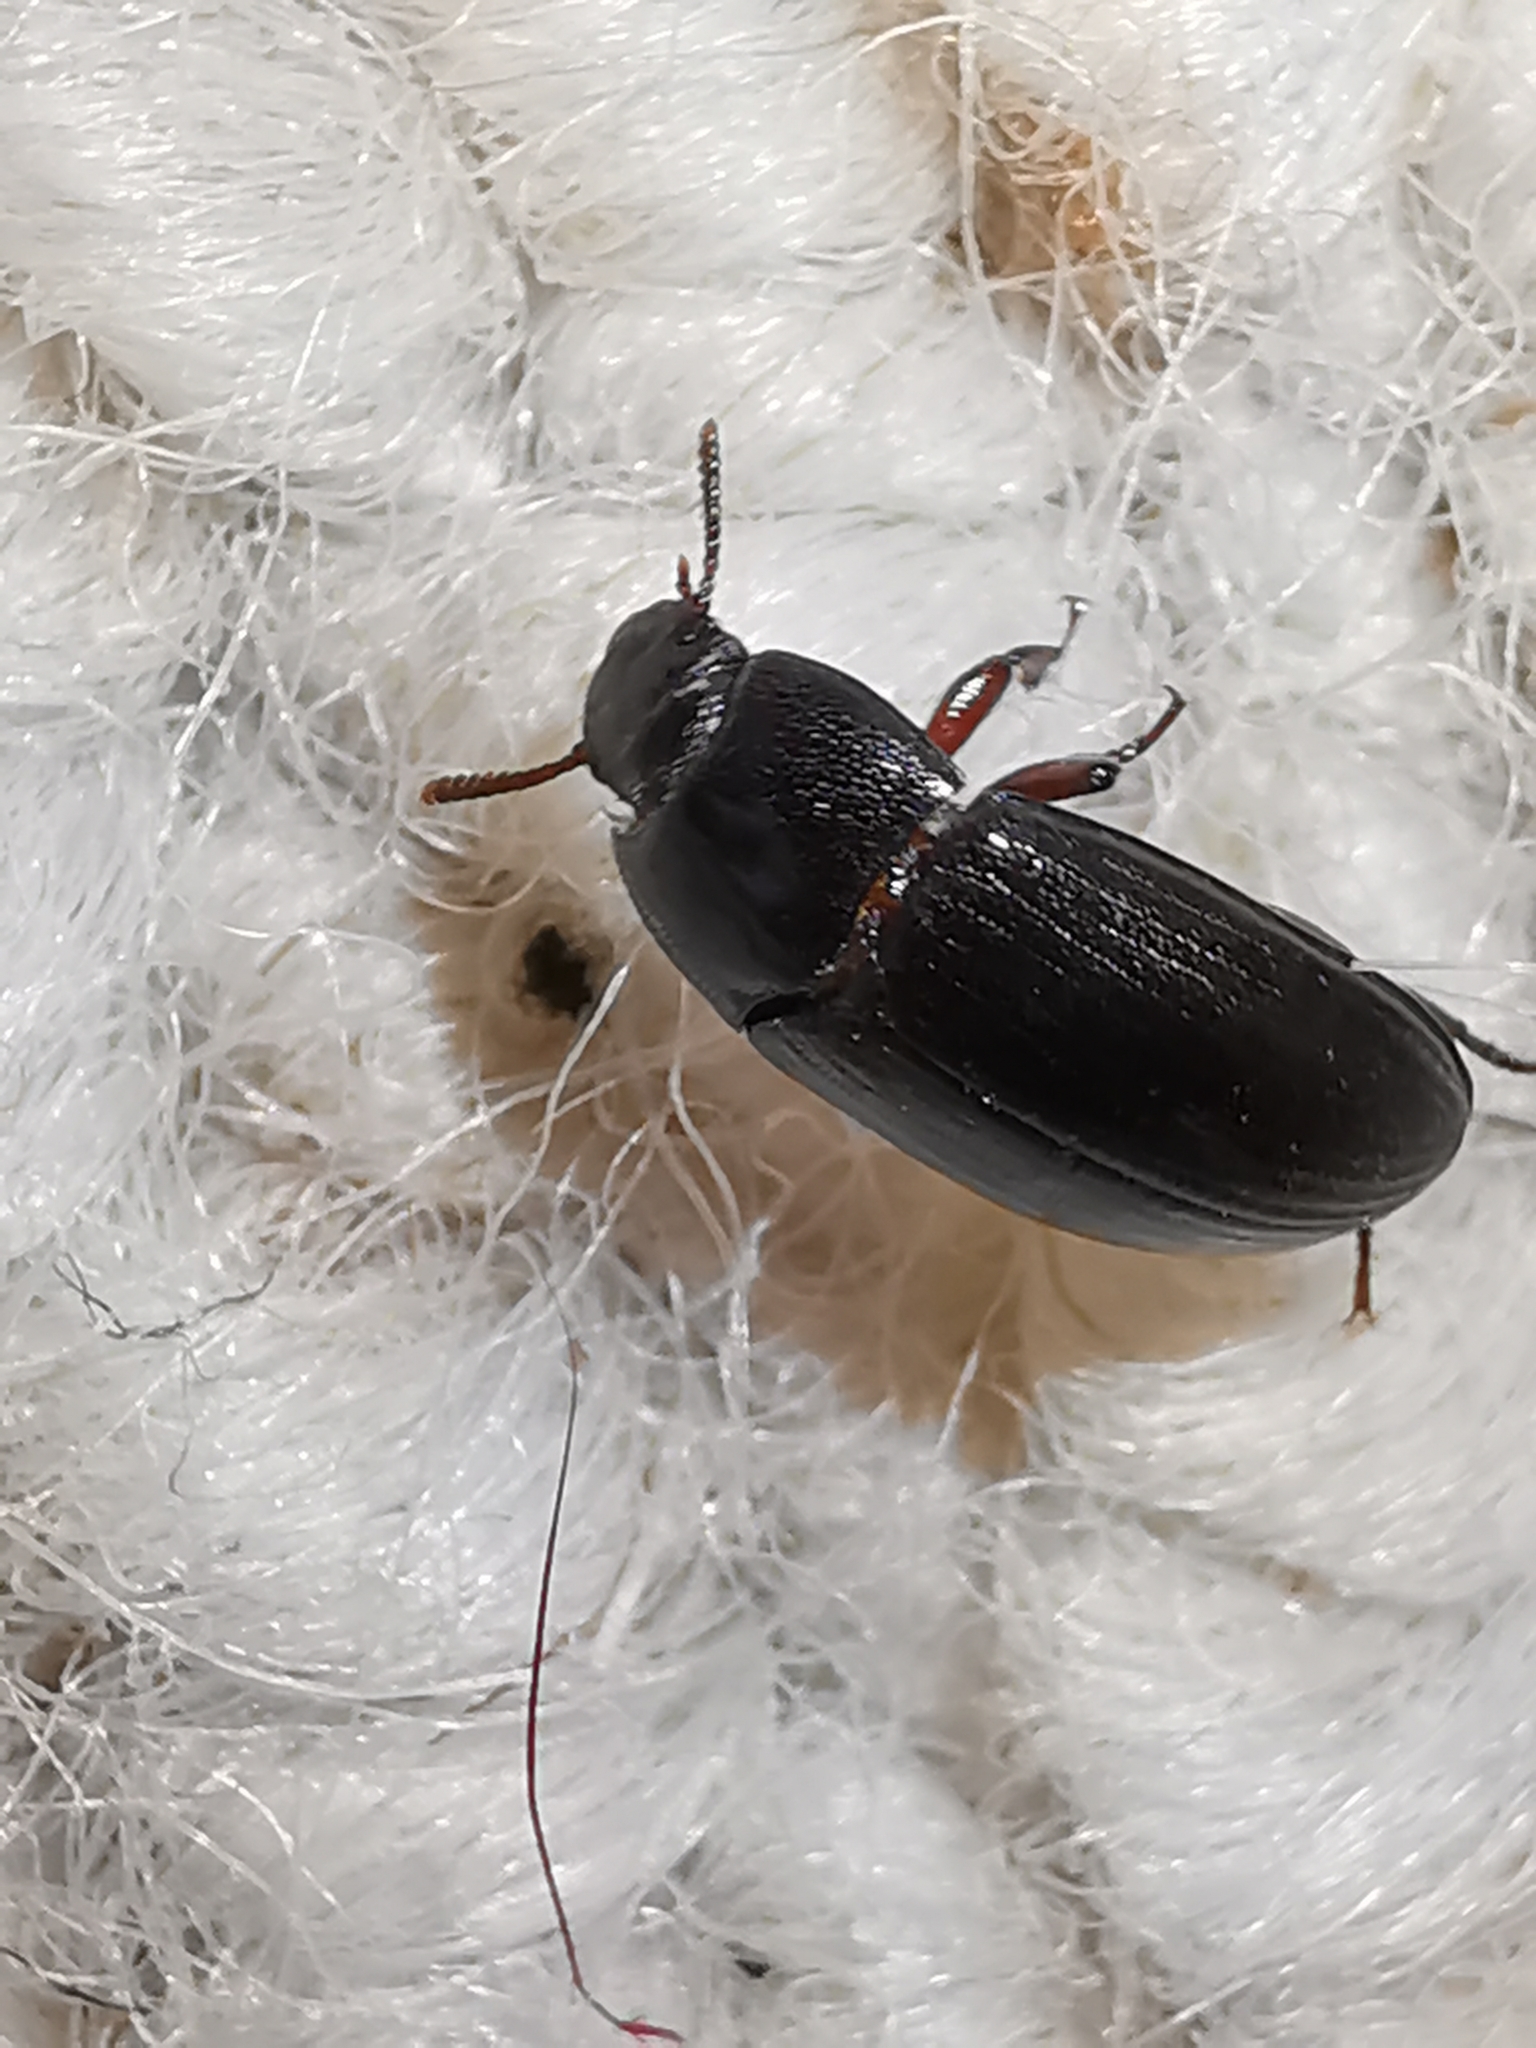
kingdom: Animalia
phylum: Arthropoda
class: Insecta
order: Coleoptera
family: Tenebrionidae
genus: Alphitobius
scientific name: Alphitobius diaperinus
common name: Lesser mealworm
